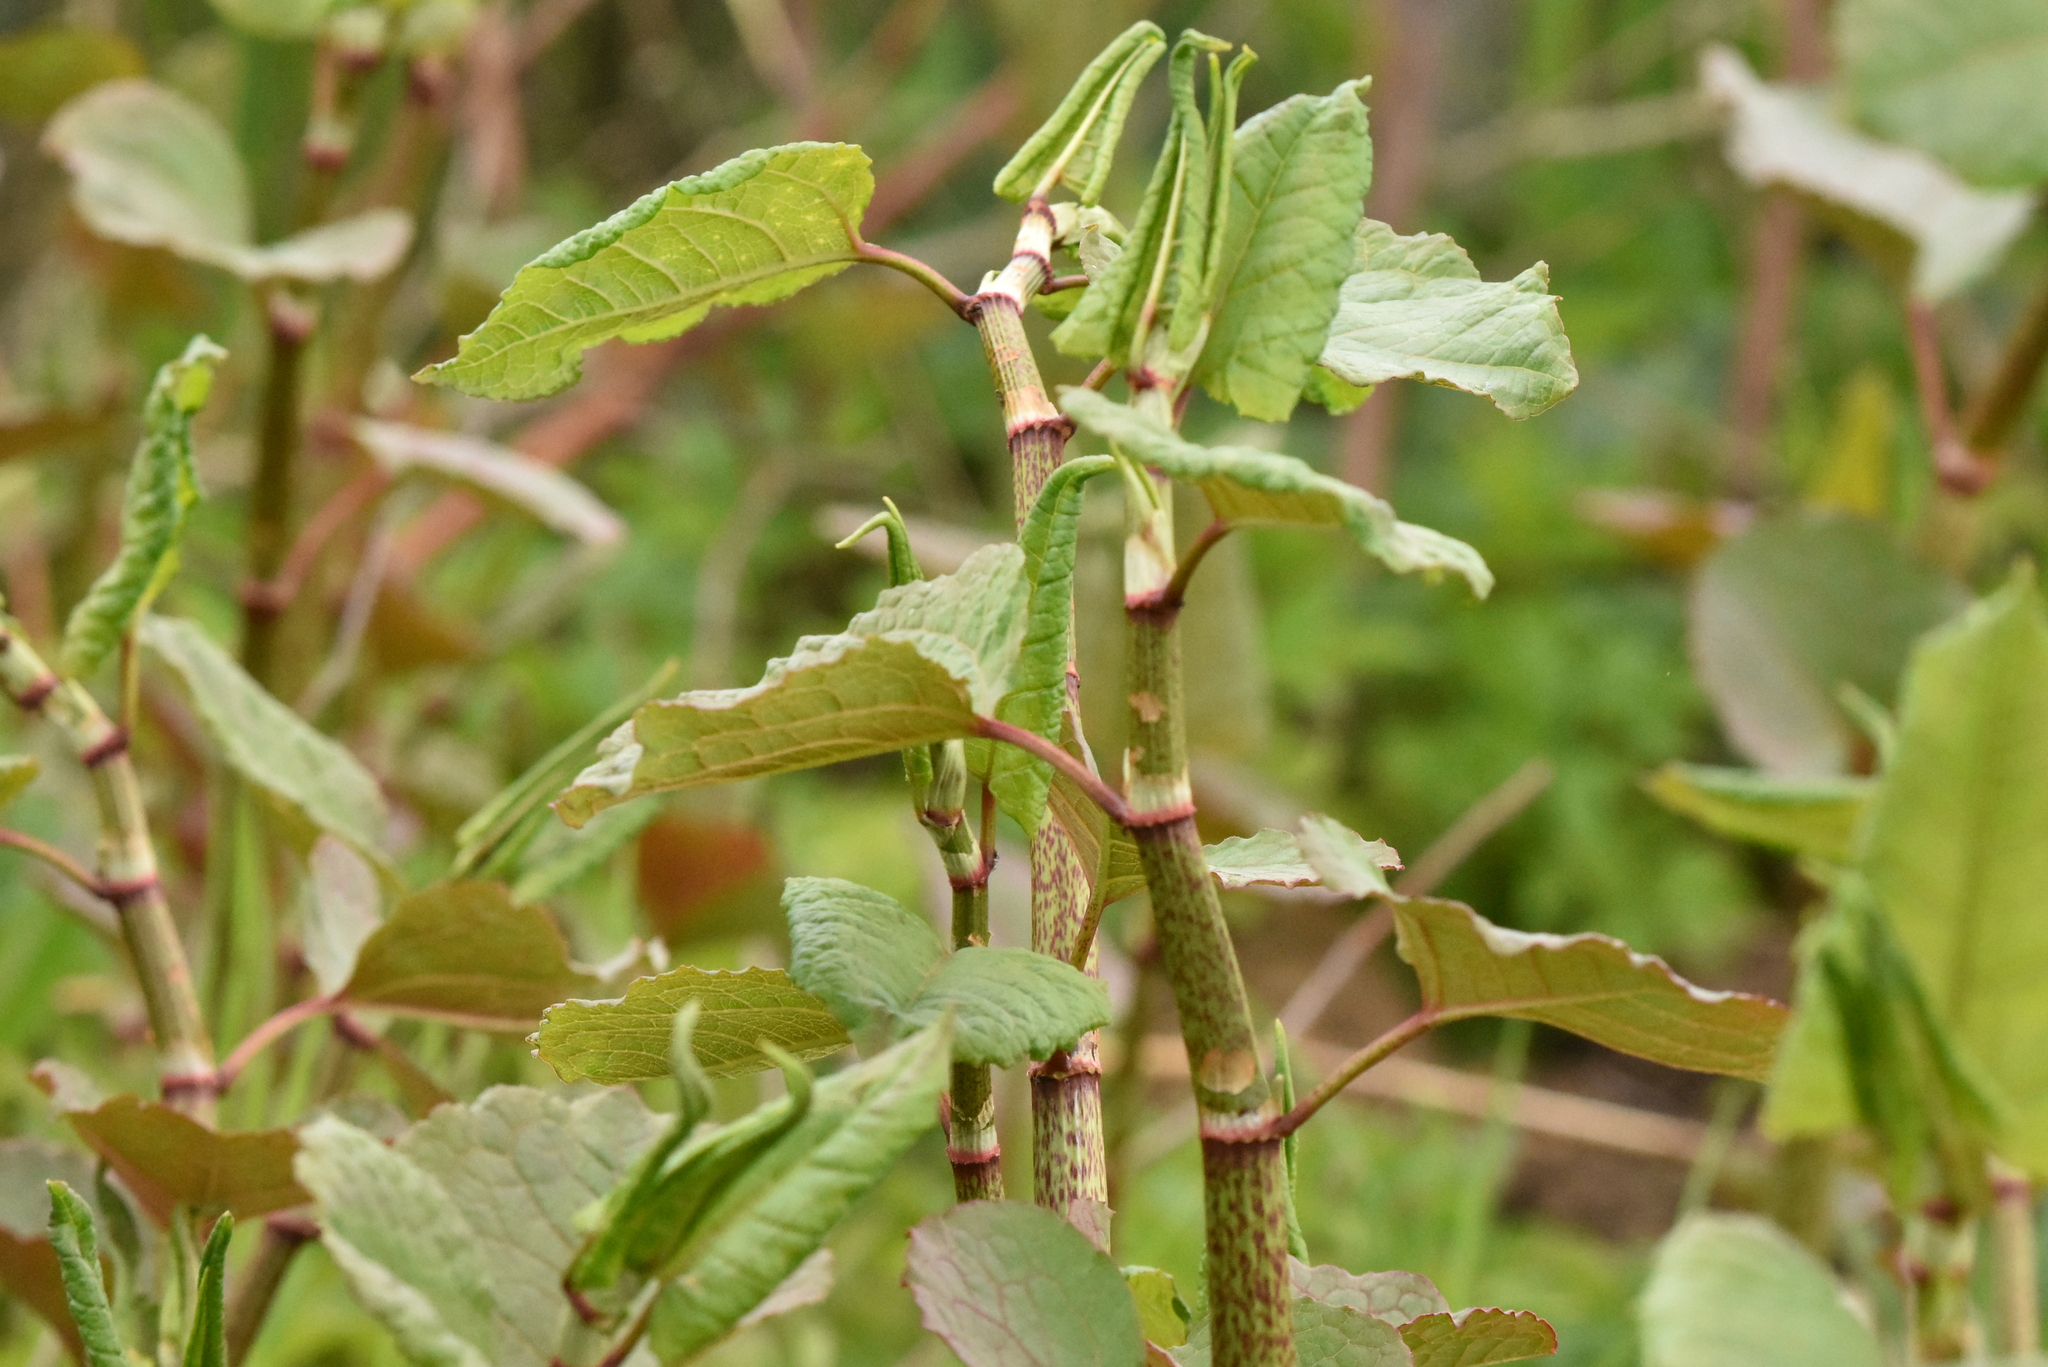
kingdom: Plantae
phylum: Tracheophyta
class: Magnoliopsida
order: Caryophyllales
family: Polygonaceae
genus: Reynoutria
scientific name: Reynoutria bohemica
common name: Bohemian knotweed
